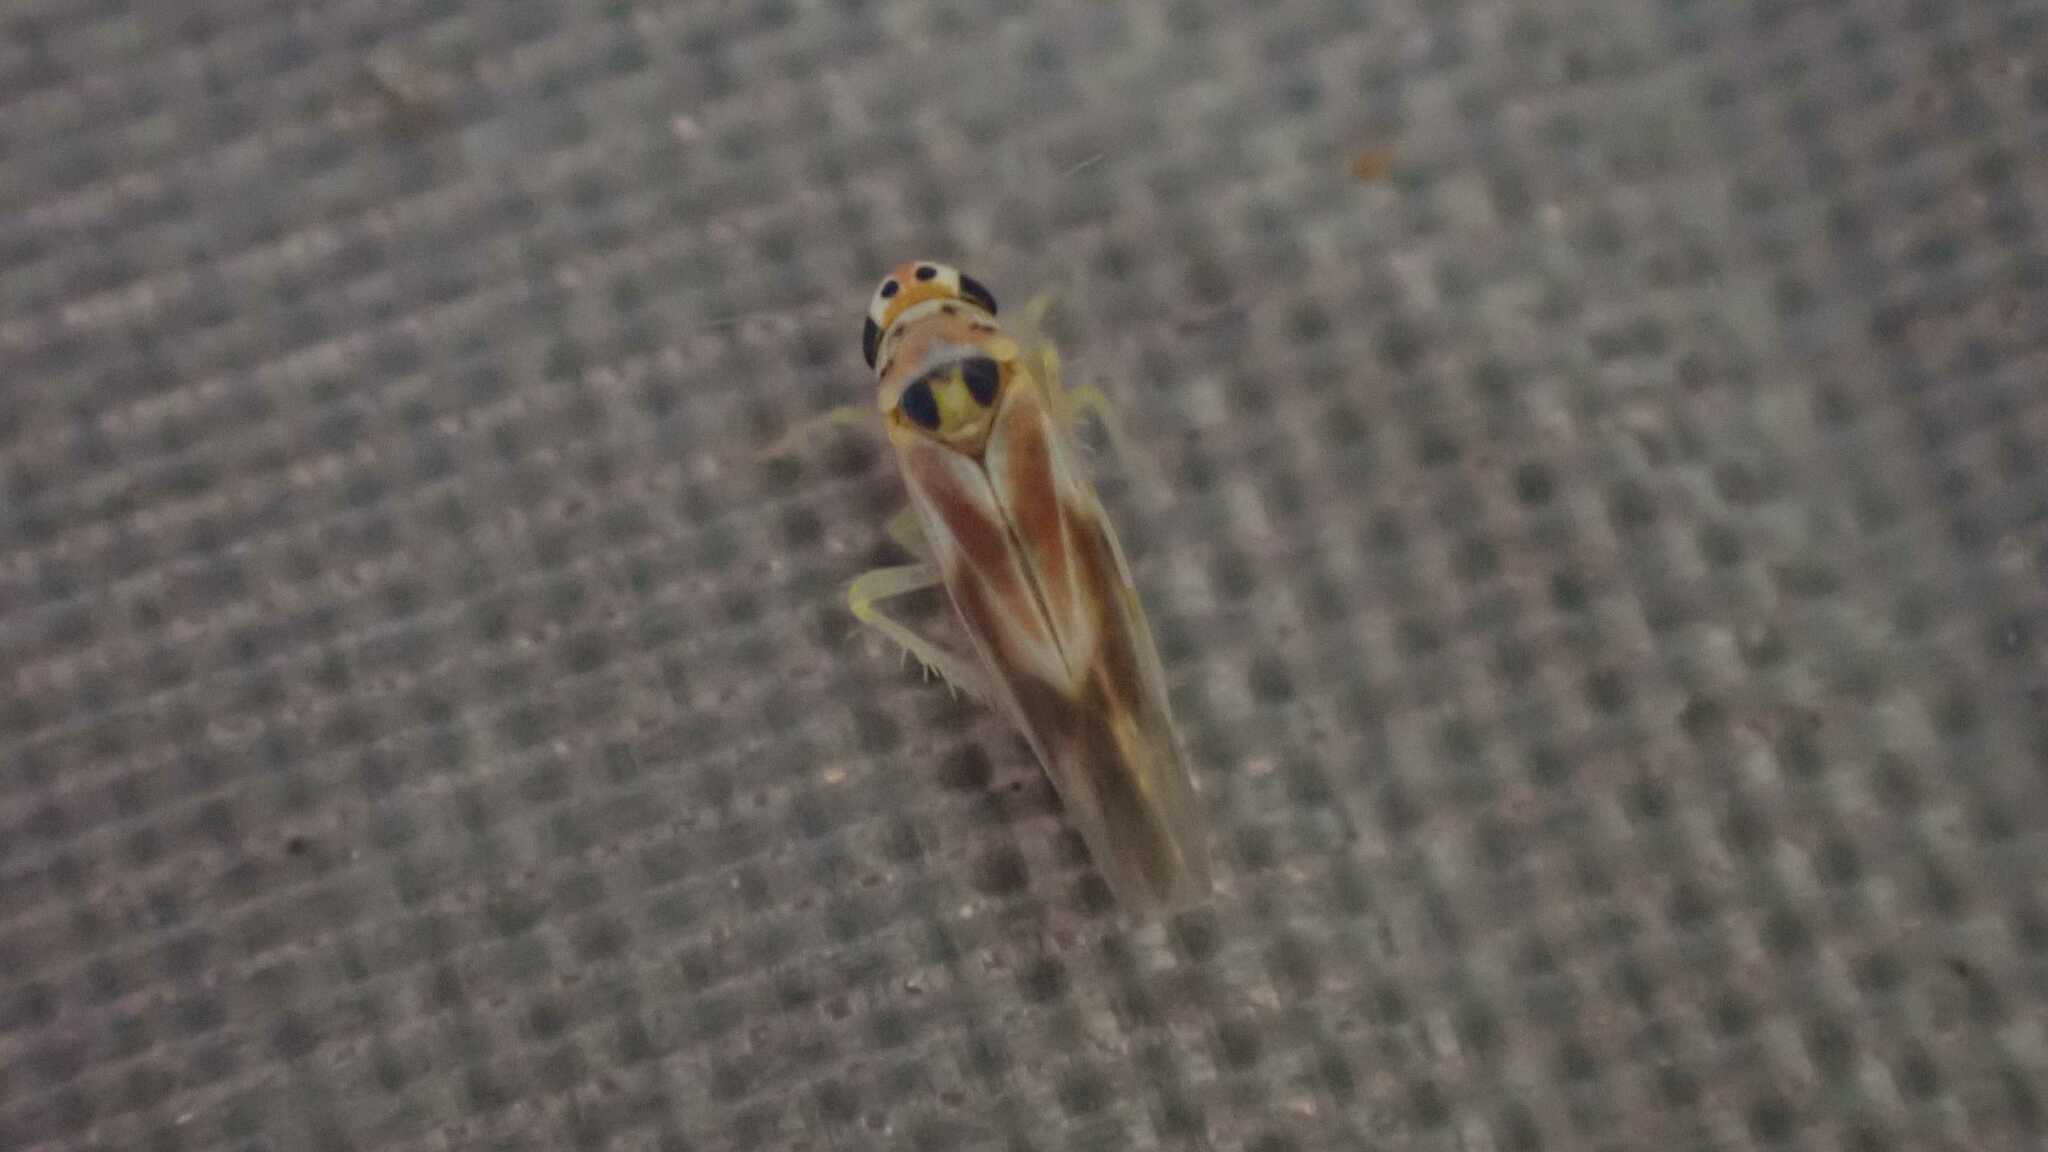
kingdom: Animalia
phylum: Arthropoda
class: Insecta
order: Hemiptera
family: Cicadellidae
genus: Arboridia
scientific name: Arboridia
